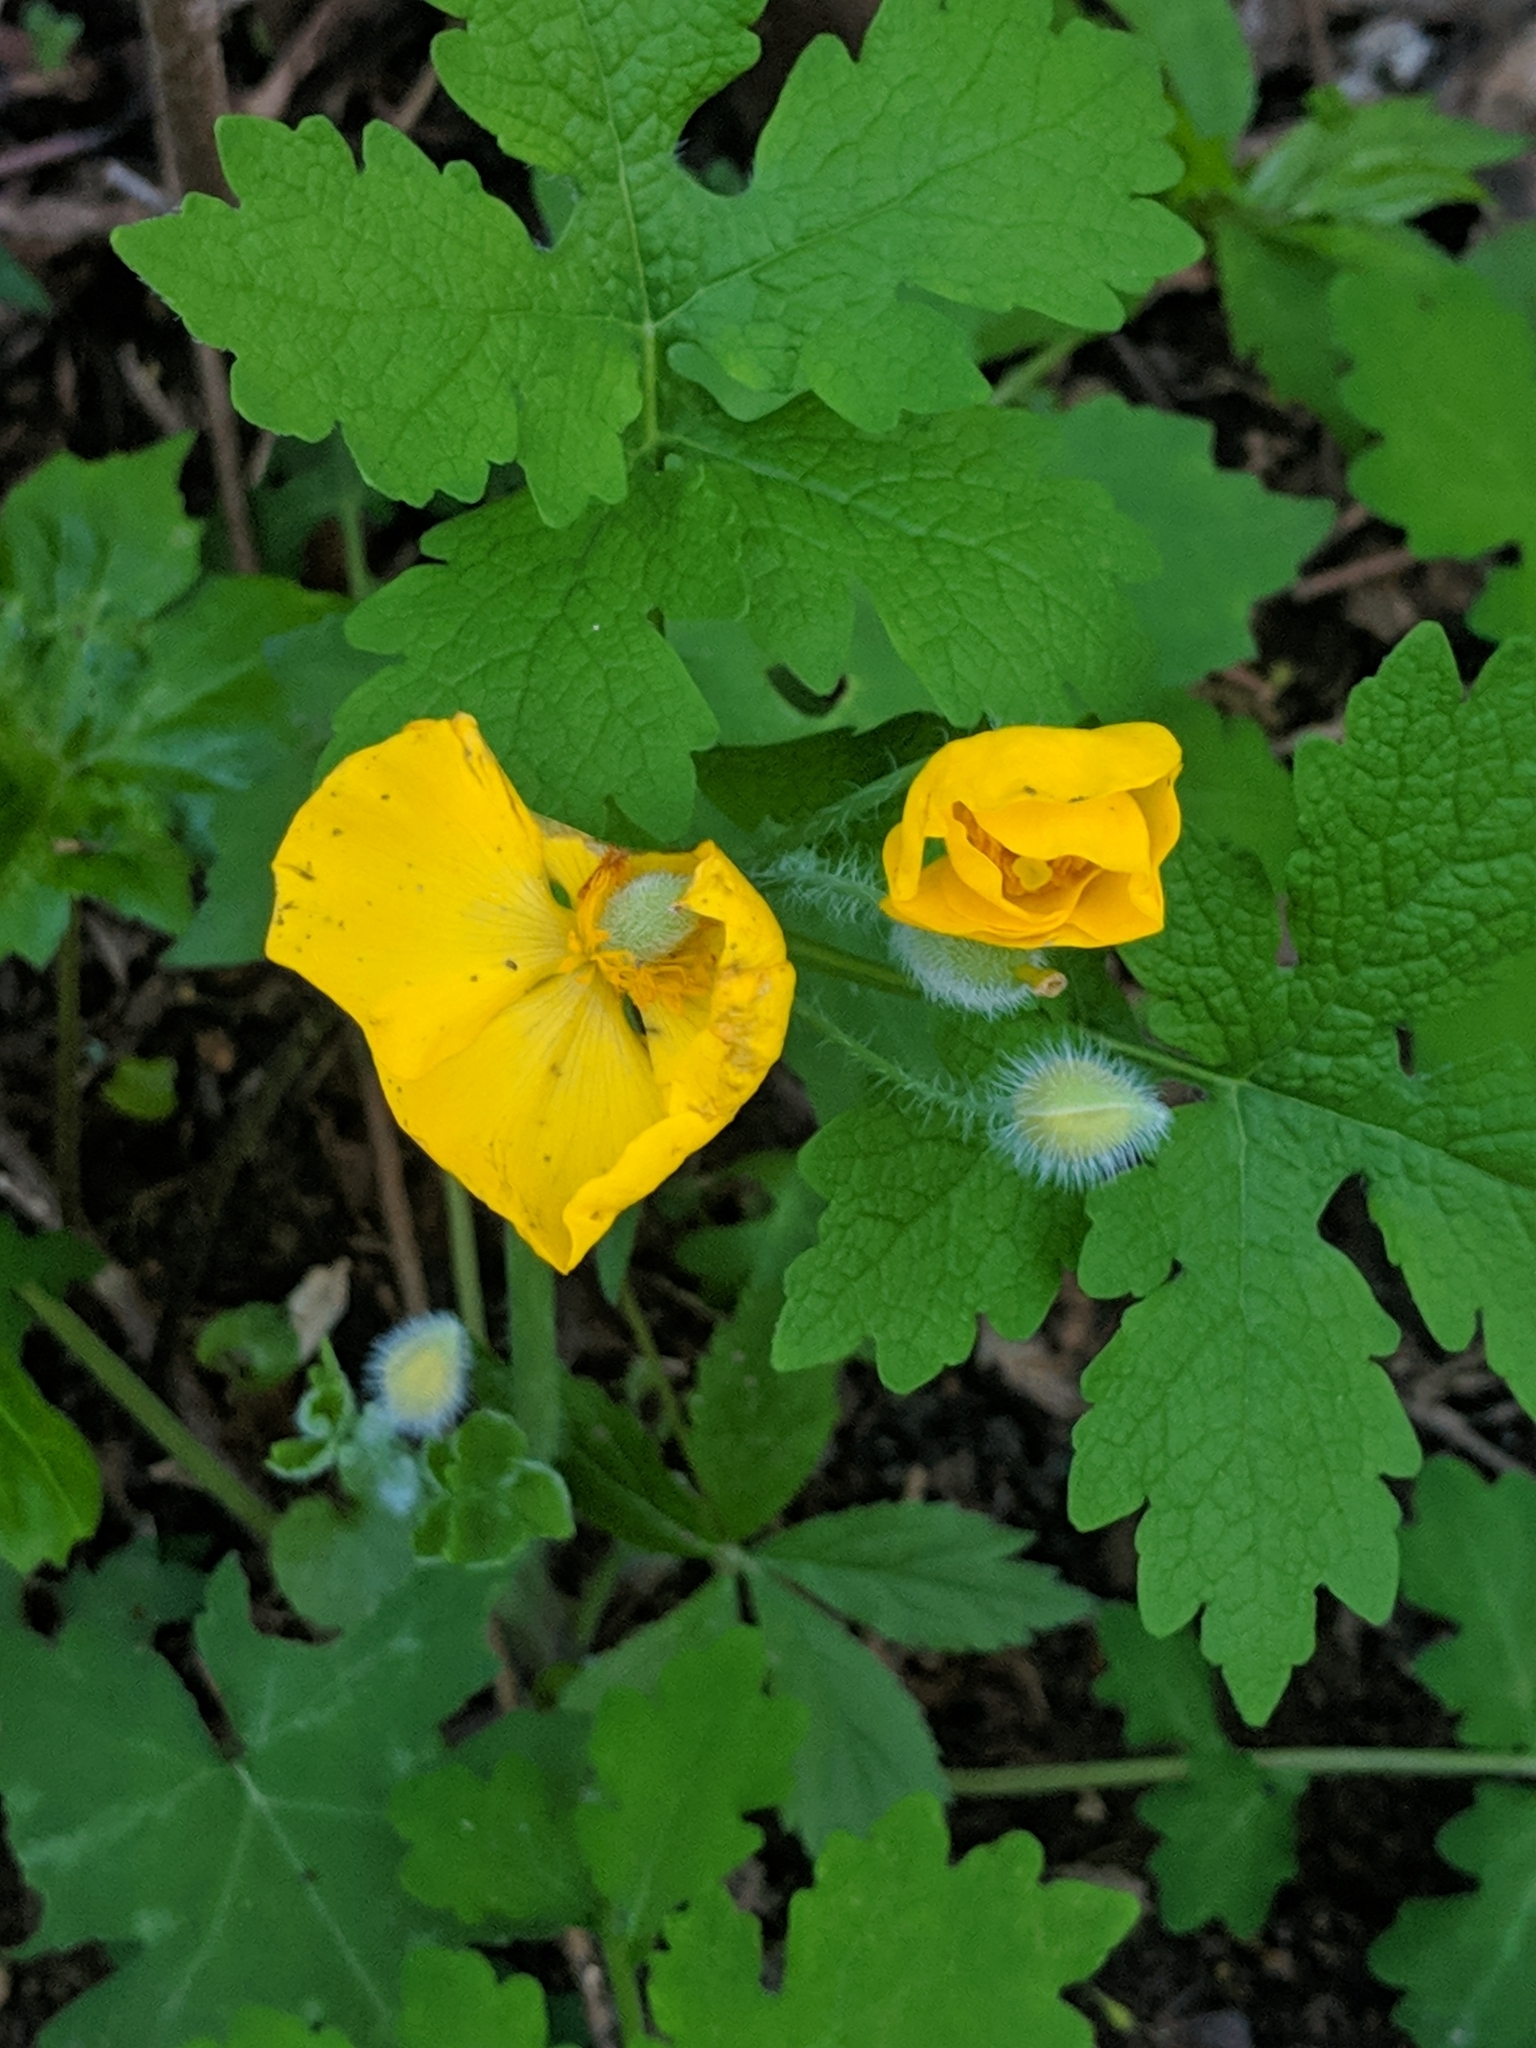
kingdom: Plantae
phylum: Tracheophyta
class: Magnoliopsida
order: Ranunculales
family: Papaveraceae
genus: Stylophorum
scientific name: Stylophorum diphyllum
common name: Celandine poppy
